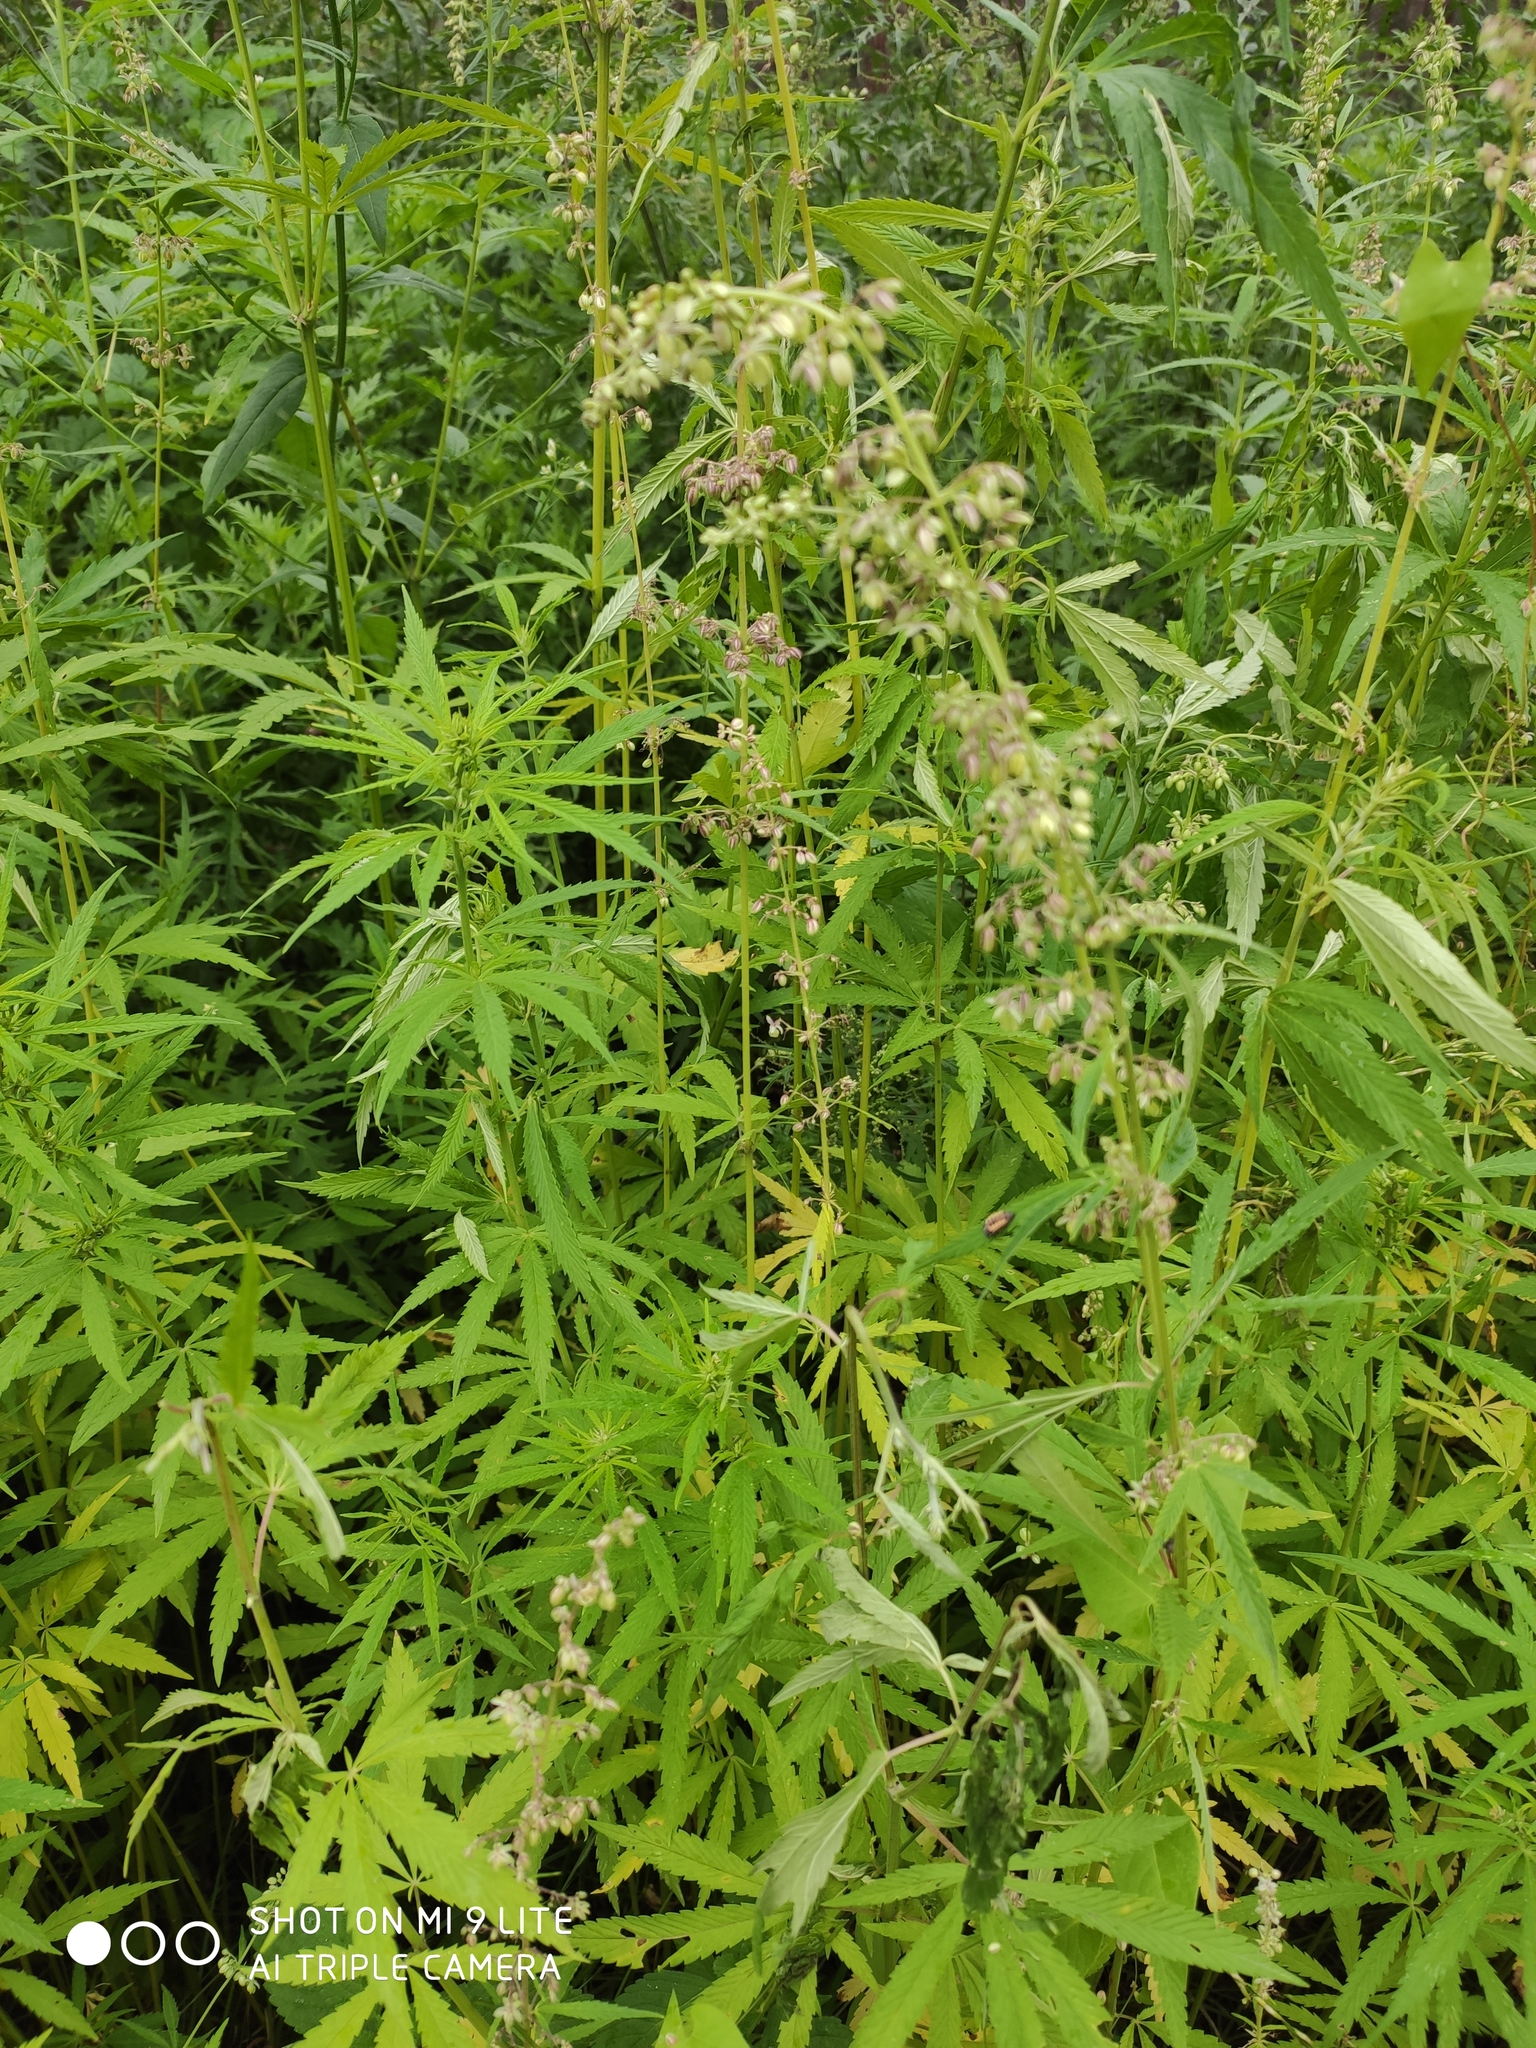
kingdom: Plantae
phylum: Tracheophyta
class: Magnoliopsida
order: Rosales
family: Cannabaceae
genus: Cannabis
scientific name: Cannabis sativa
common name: Hemp
